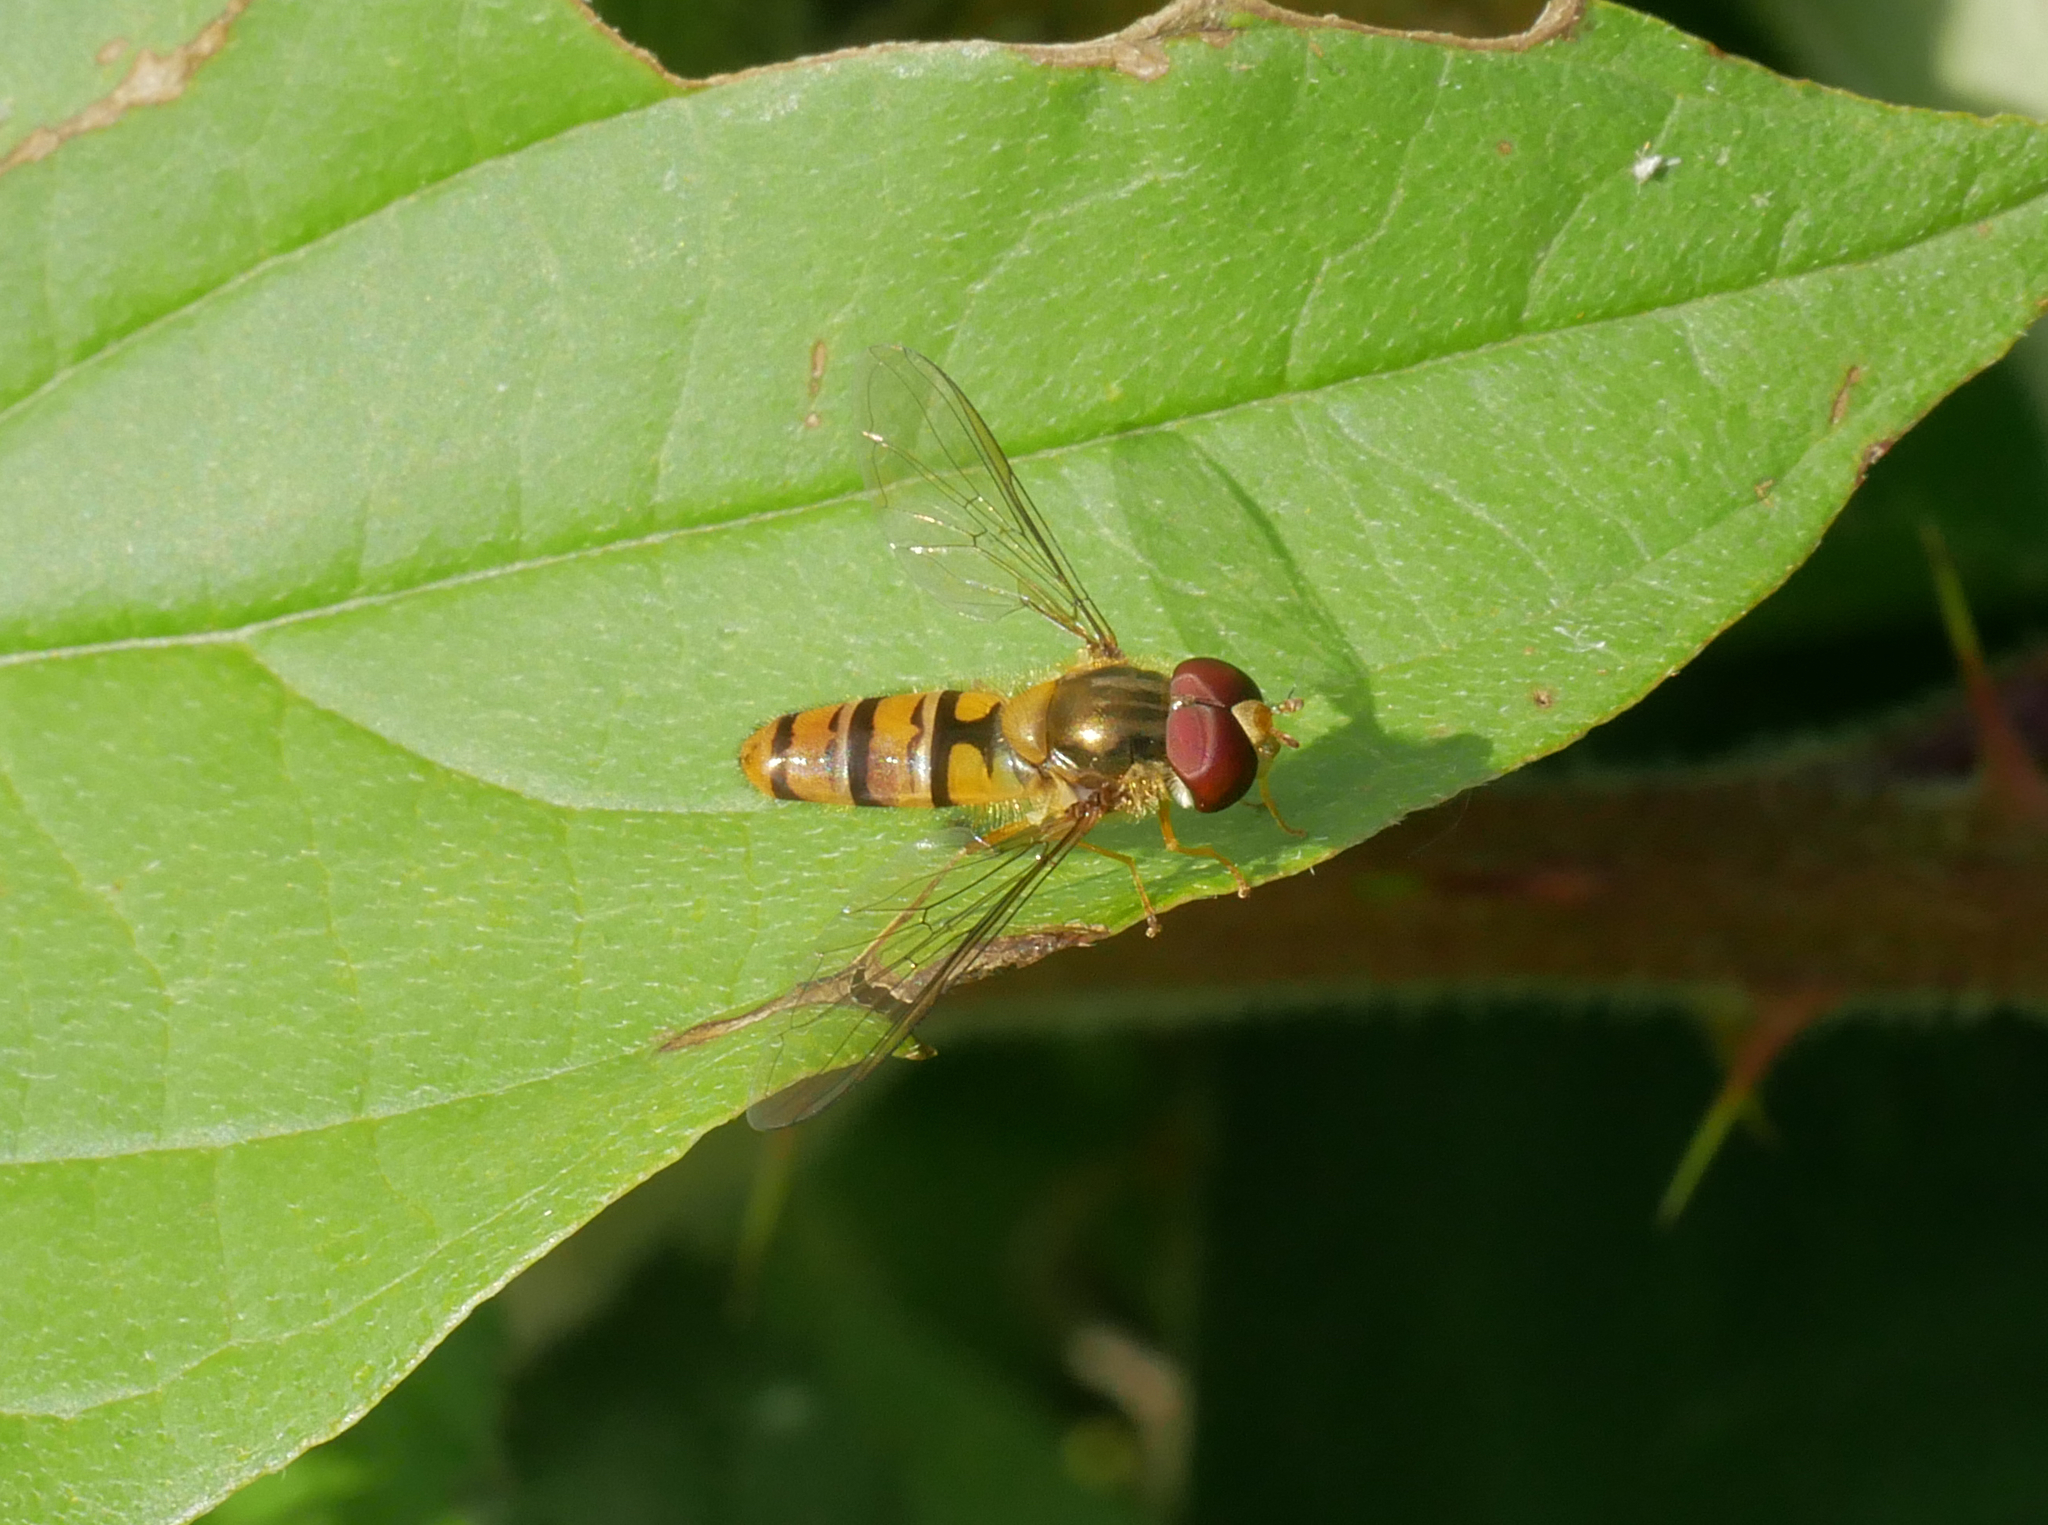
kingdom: Animalia
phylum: Arthropoda
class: Insecta
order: Diptera
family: Syrphidae
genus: Episyrphus
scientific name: Episyrphus balteatus
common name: Marmalade hoverfly
